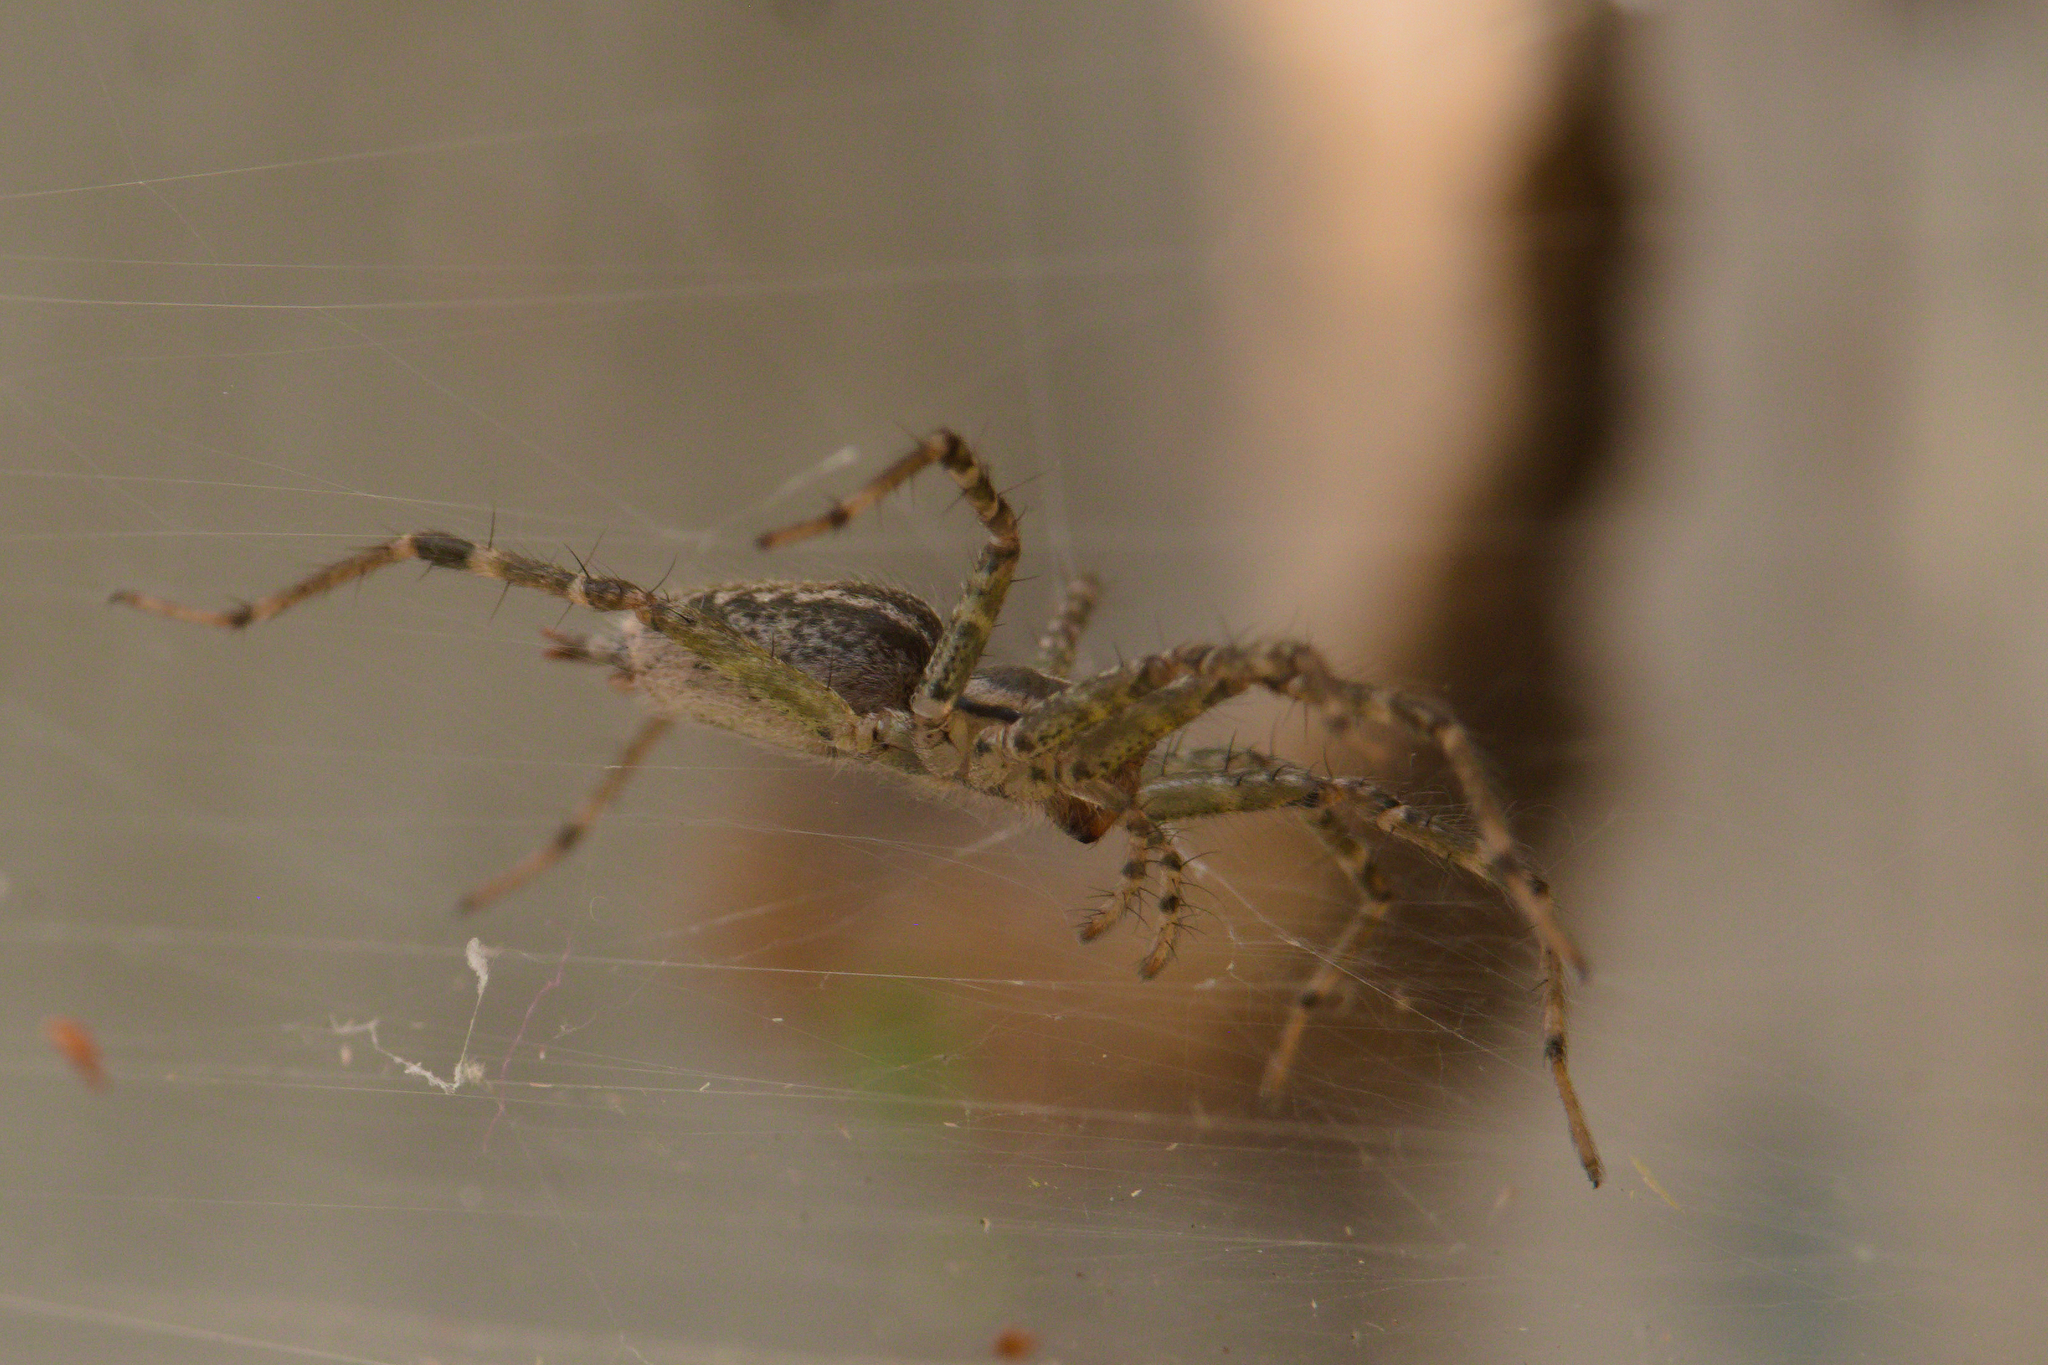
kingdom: Animalia
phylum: Arthropoda
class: Arachnida
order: Araneae
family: Agelenidae
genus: Agelenopsis
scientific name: Agelenopsis
